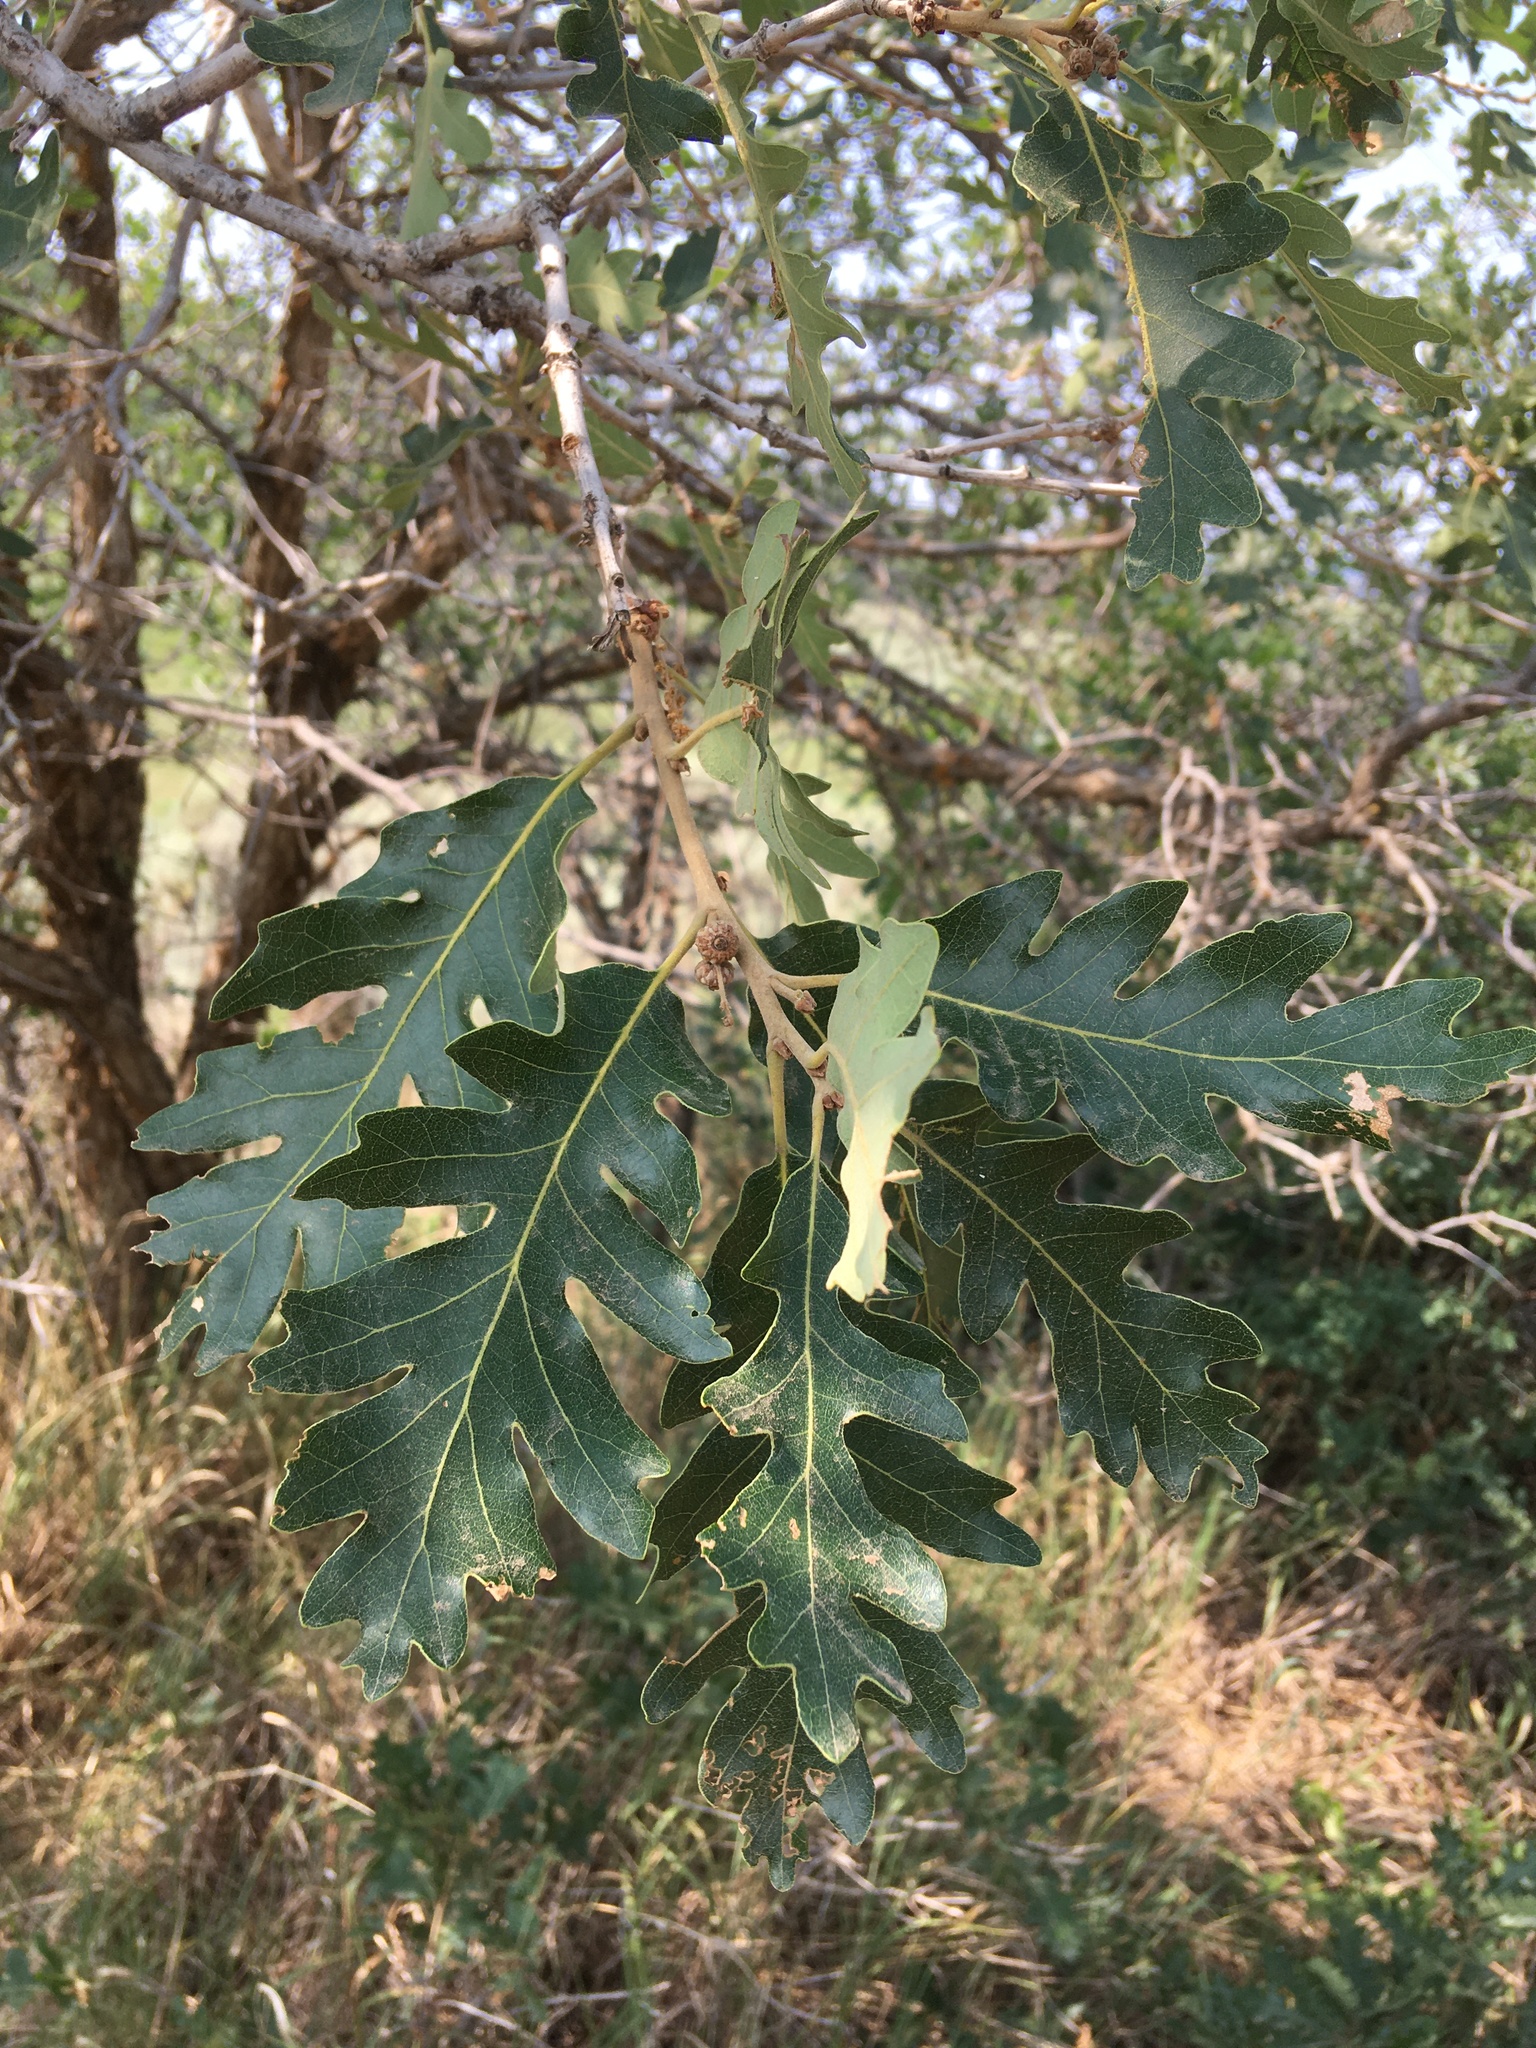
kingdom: Plantae
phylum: Tracheophyta
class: Magnoliopsida
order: Fagales
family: Fagaceae
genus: Quercus
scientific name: Quercus gambelii
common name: Gambel oak
